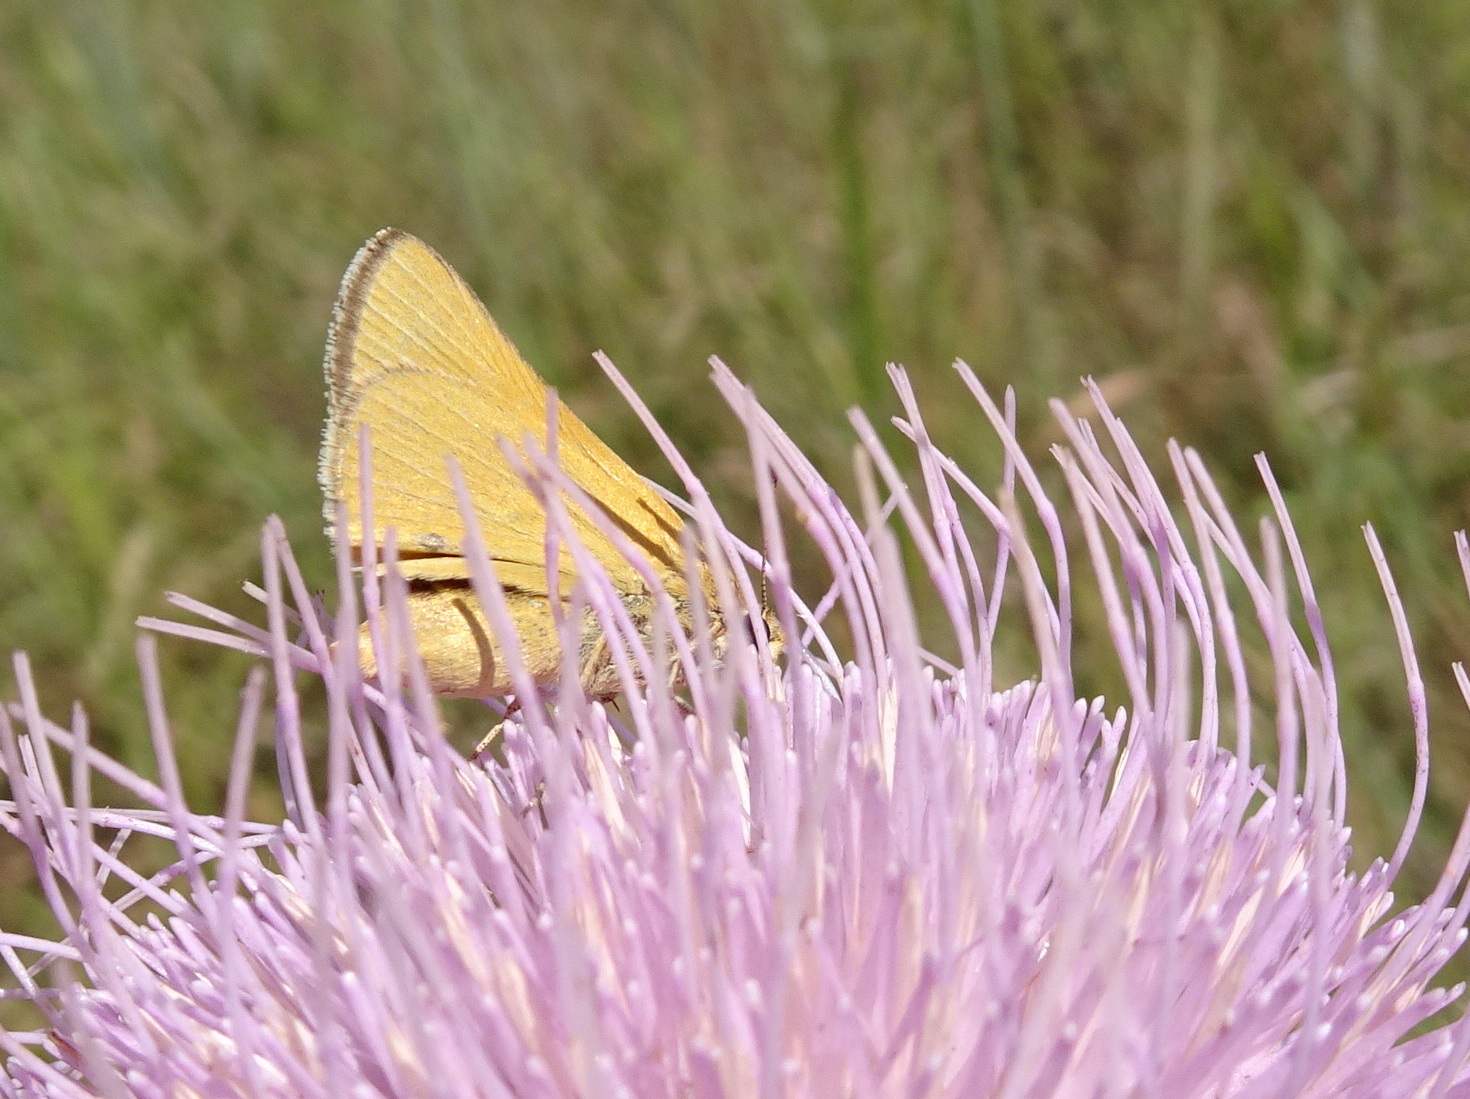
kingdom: Animalia
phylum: Arthropoda
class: Insecta
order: Lepidoptera
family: Hesperiidae
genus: Atrytone
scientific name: Atrytone arogos
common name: Arogos skipper
